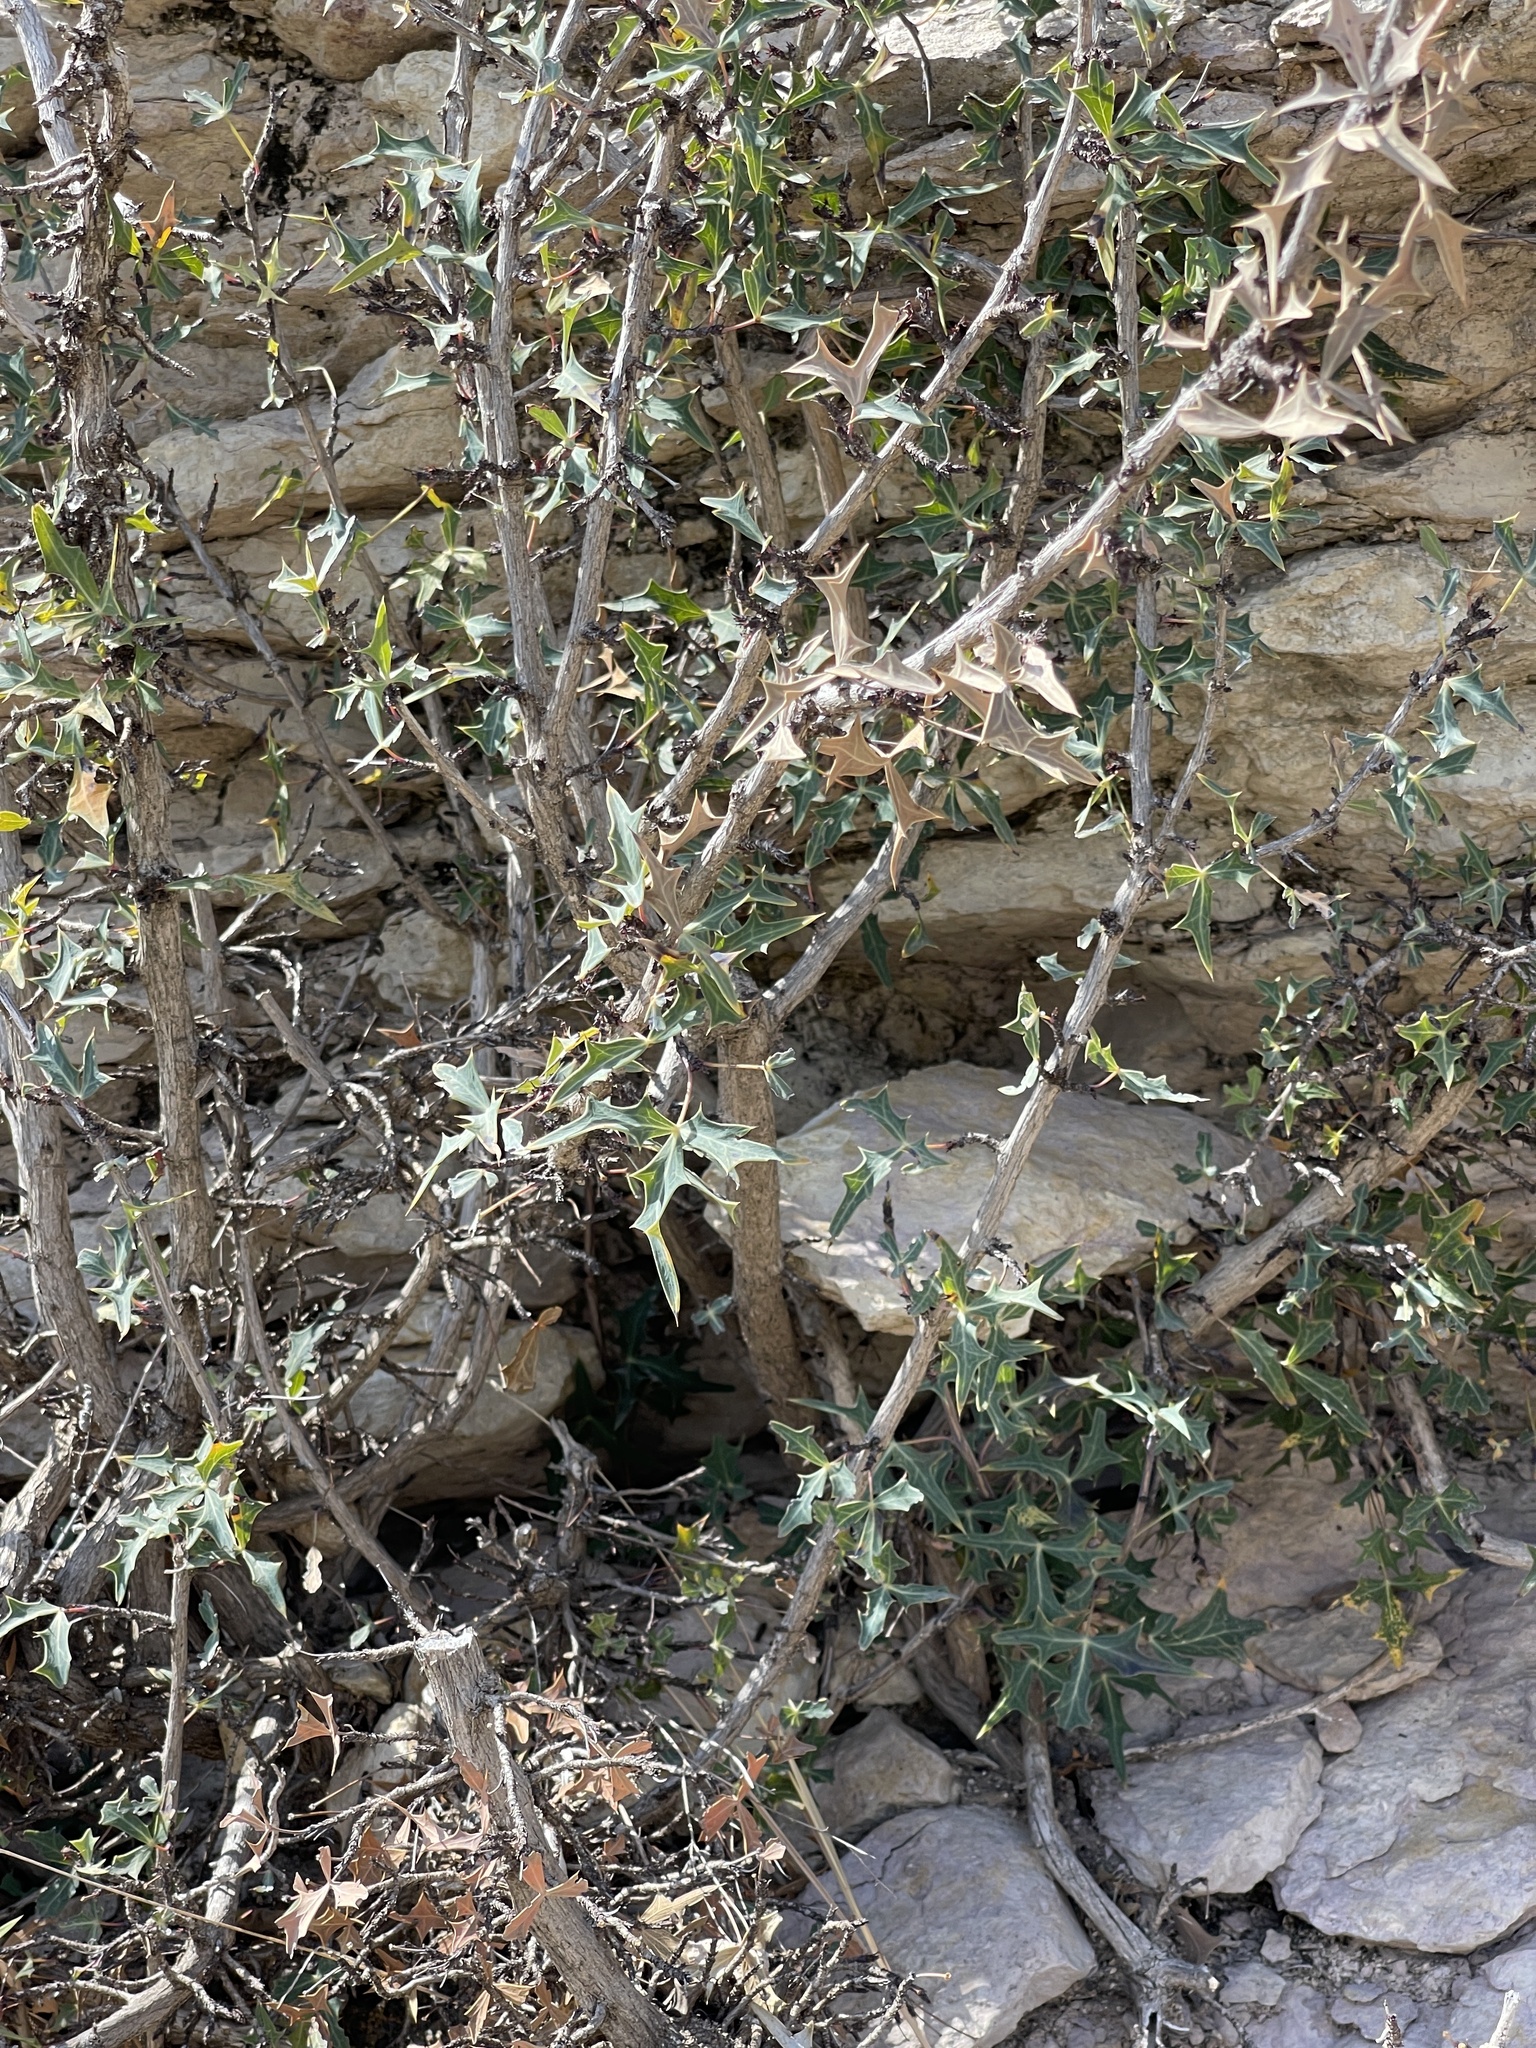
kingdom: Plantae
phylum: Tracheophyta
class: Magnoliopsida
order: Ranunculales
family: Berberidaceae
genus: Alloberberis
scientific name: Alloberberis trifoliolata
